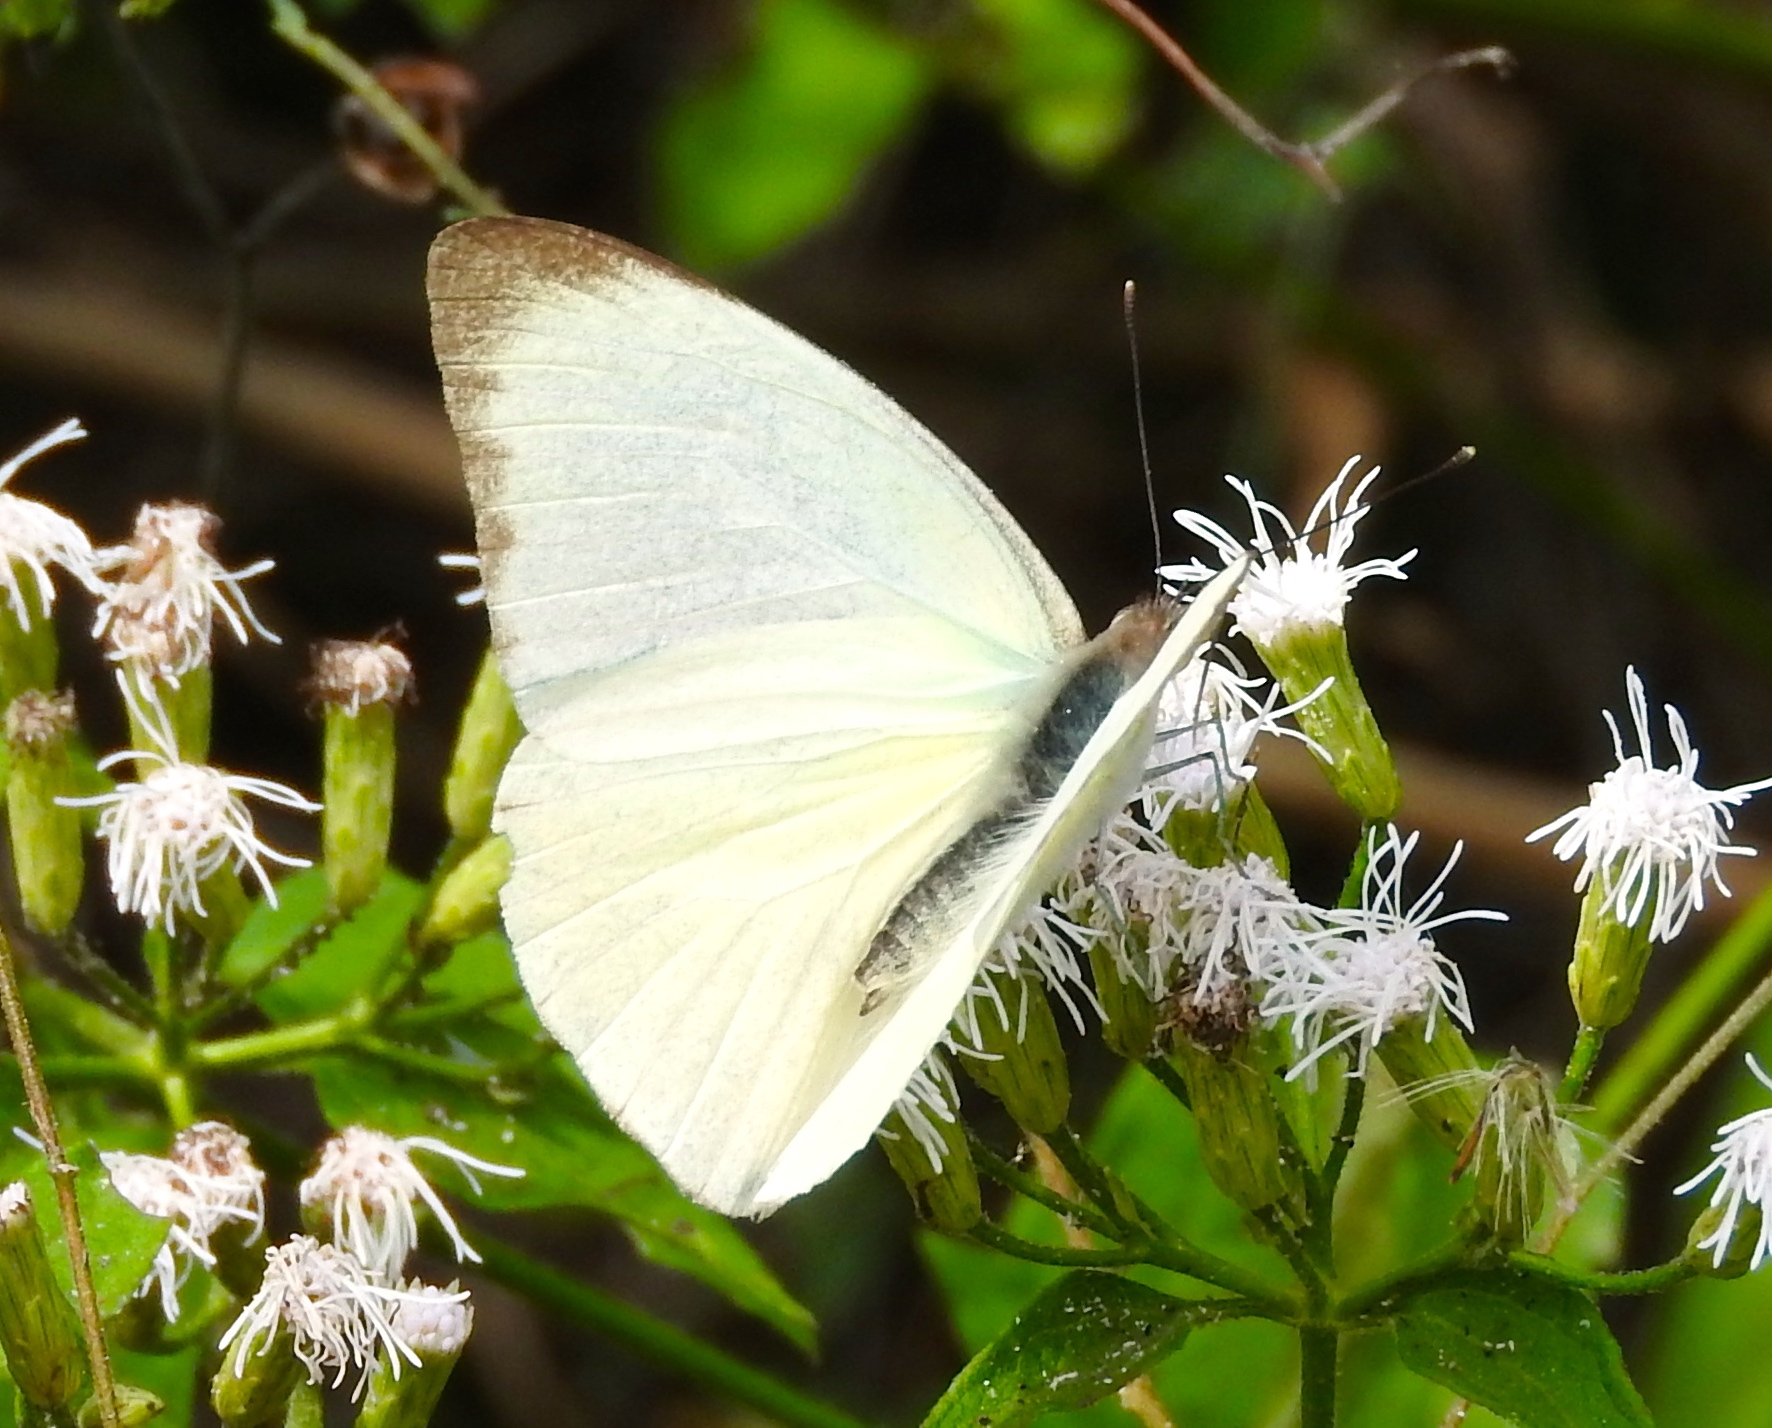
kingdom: Animalia
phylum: Arthropoda
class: Insecta
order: Lepidoptera
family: Pieridae
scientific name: Pieridae
